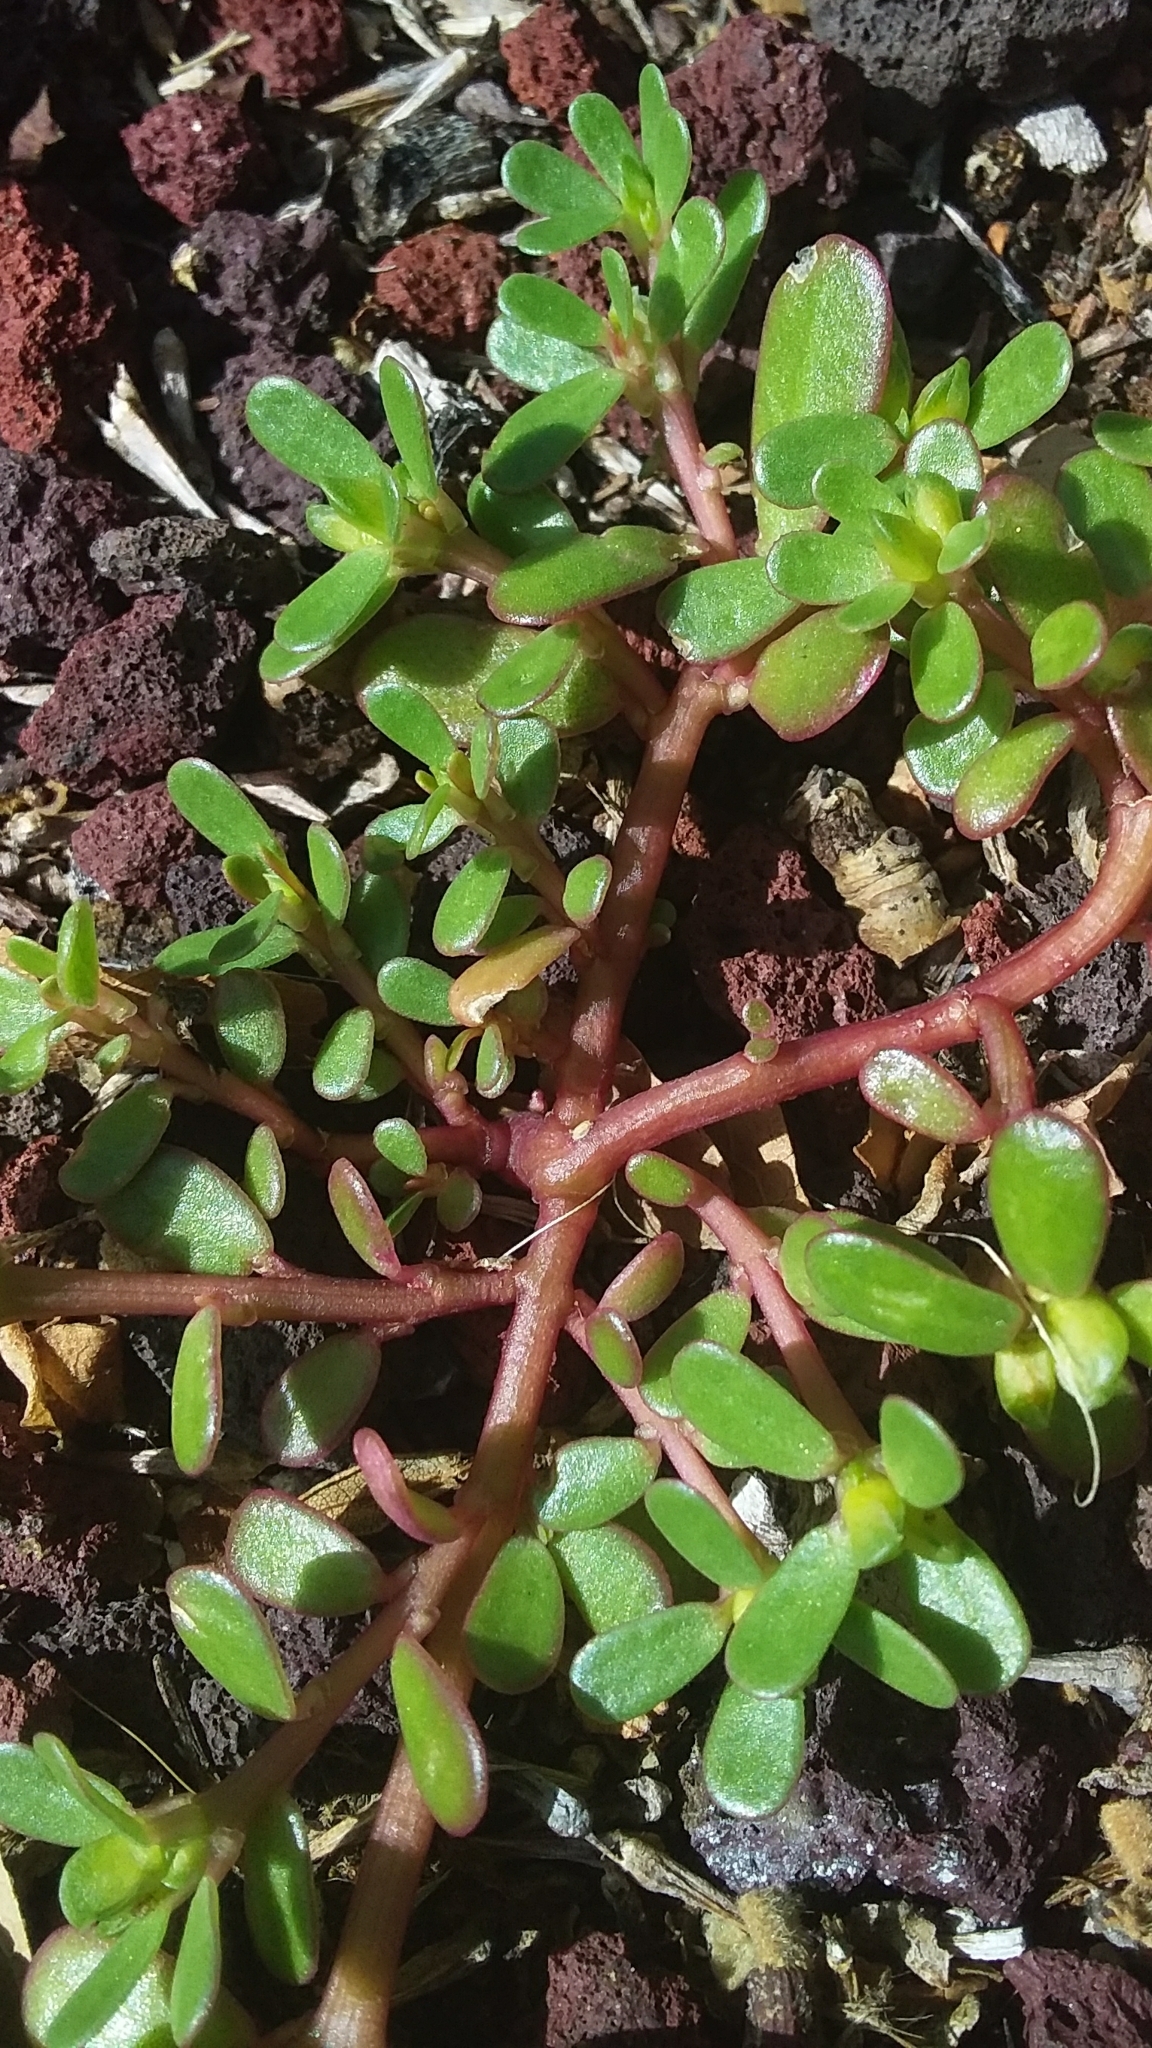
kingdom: Plantae
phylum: Tracheophyta
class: Magnoliopsida
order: Caryophyllales
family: Portulacaceae
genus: Portulaca
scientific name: Portulaca oleracea
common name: Common purslane
